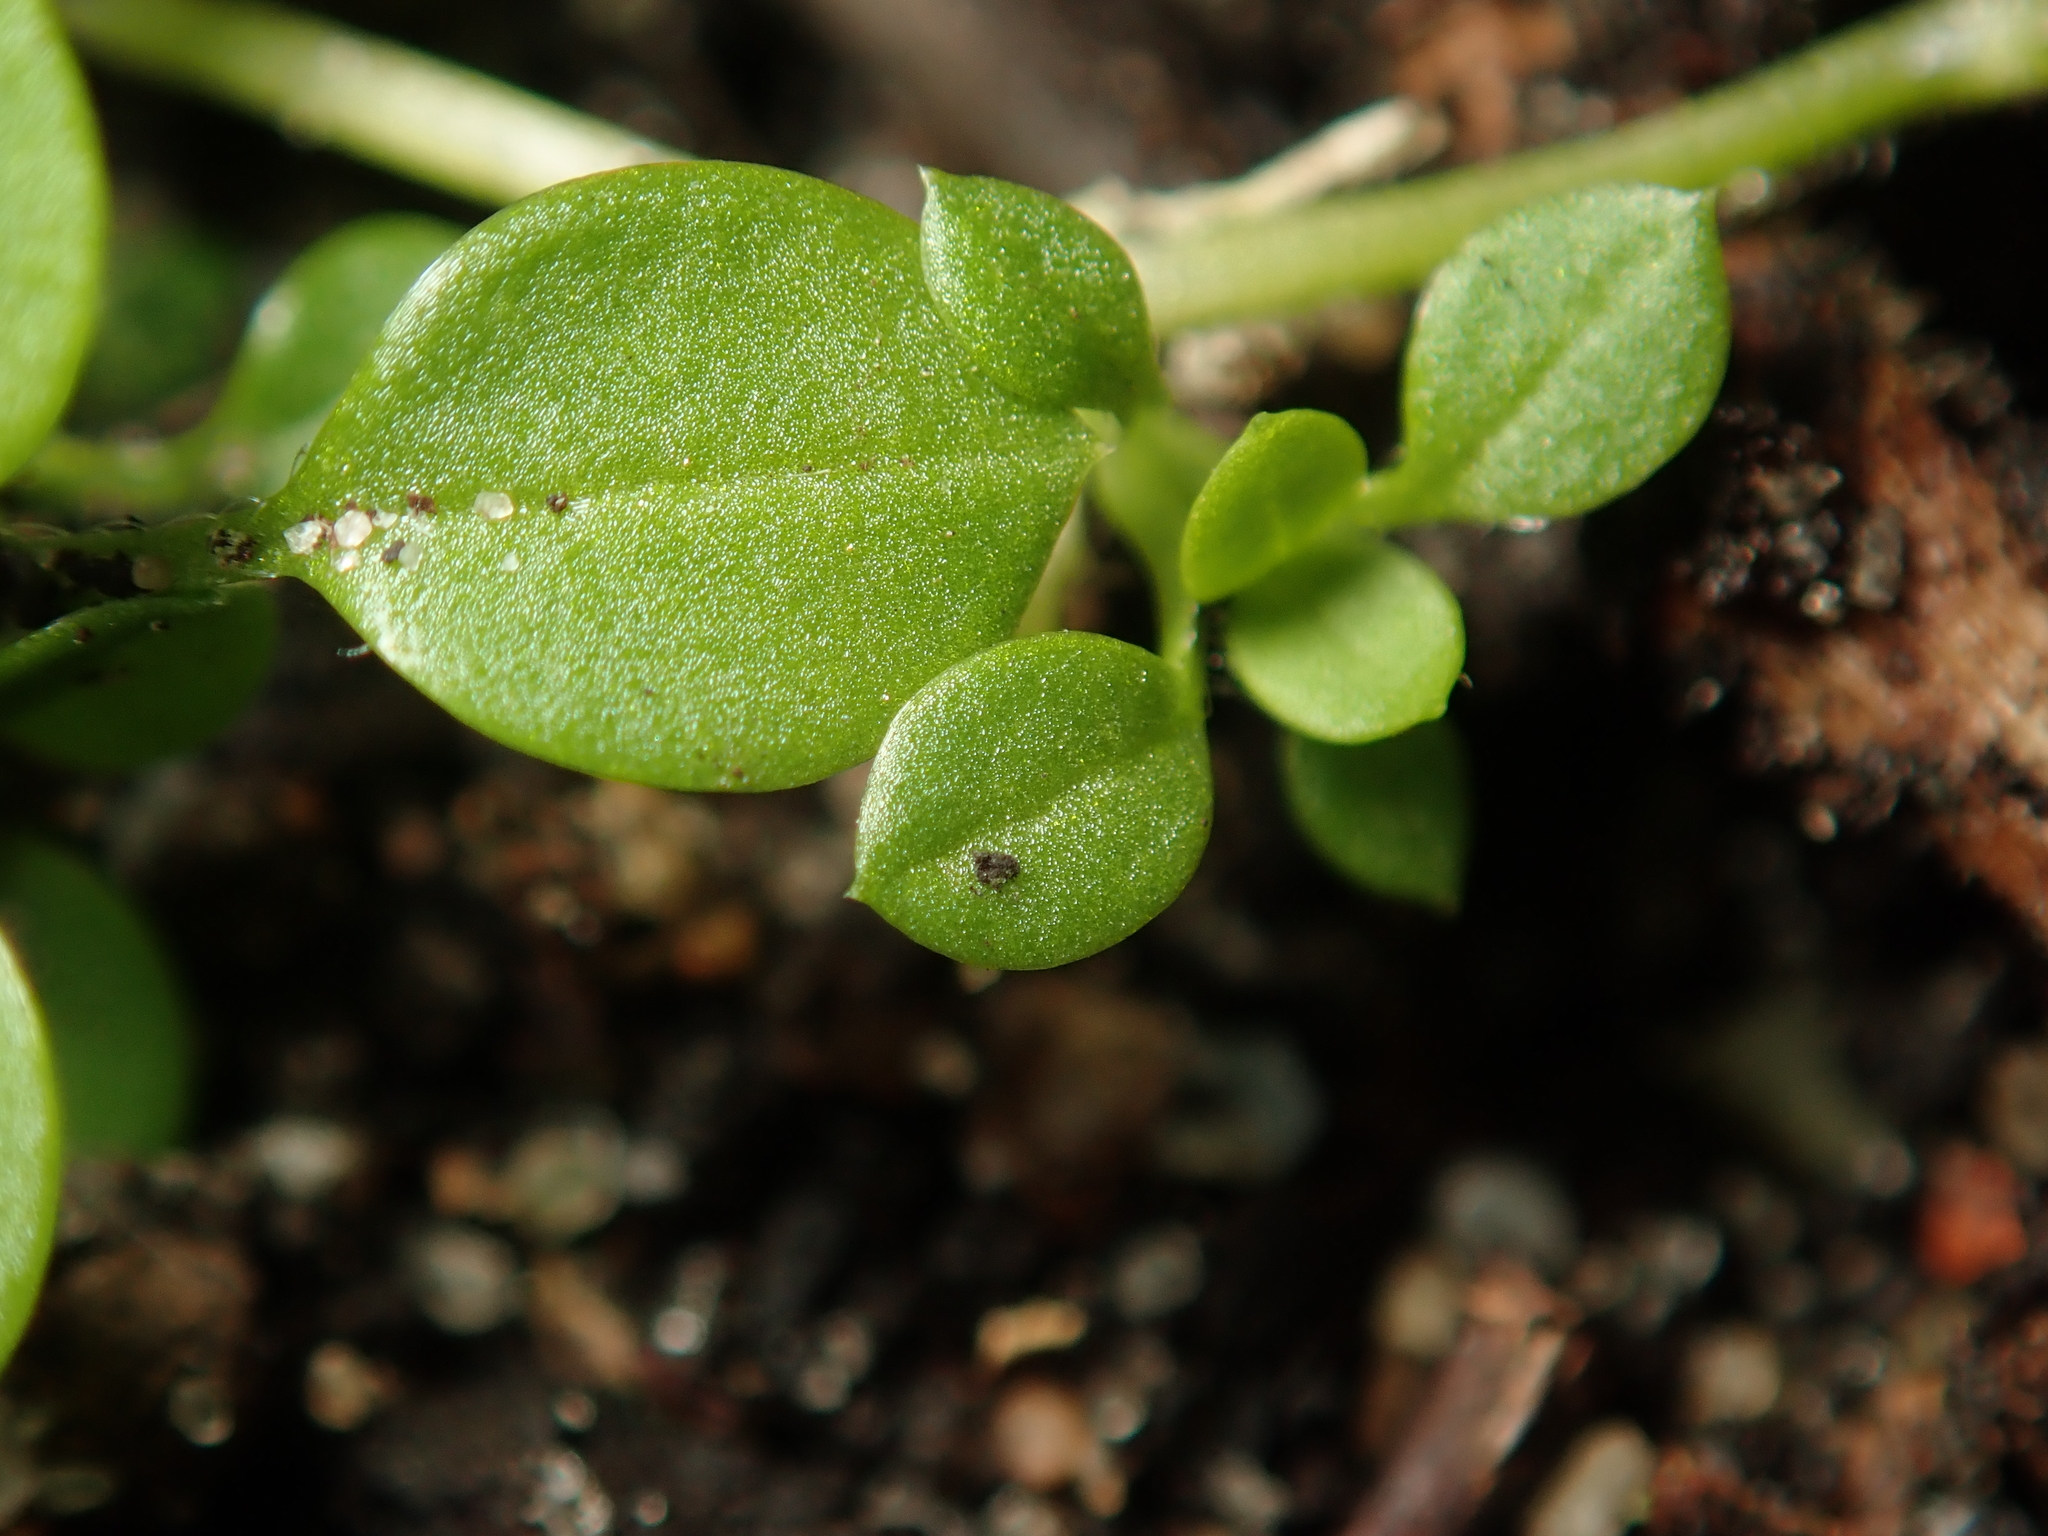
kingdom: Plantae
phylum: Tracheophyta
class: Magnoliopsida
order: Caryophyllales
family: Caryophyllaceae
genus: Stellaria
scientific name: Stellaria media
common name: Common chickweed
